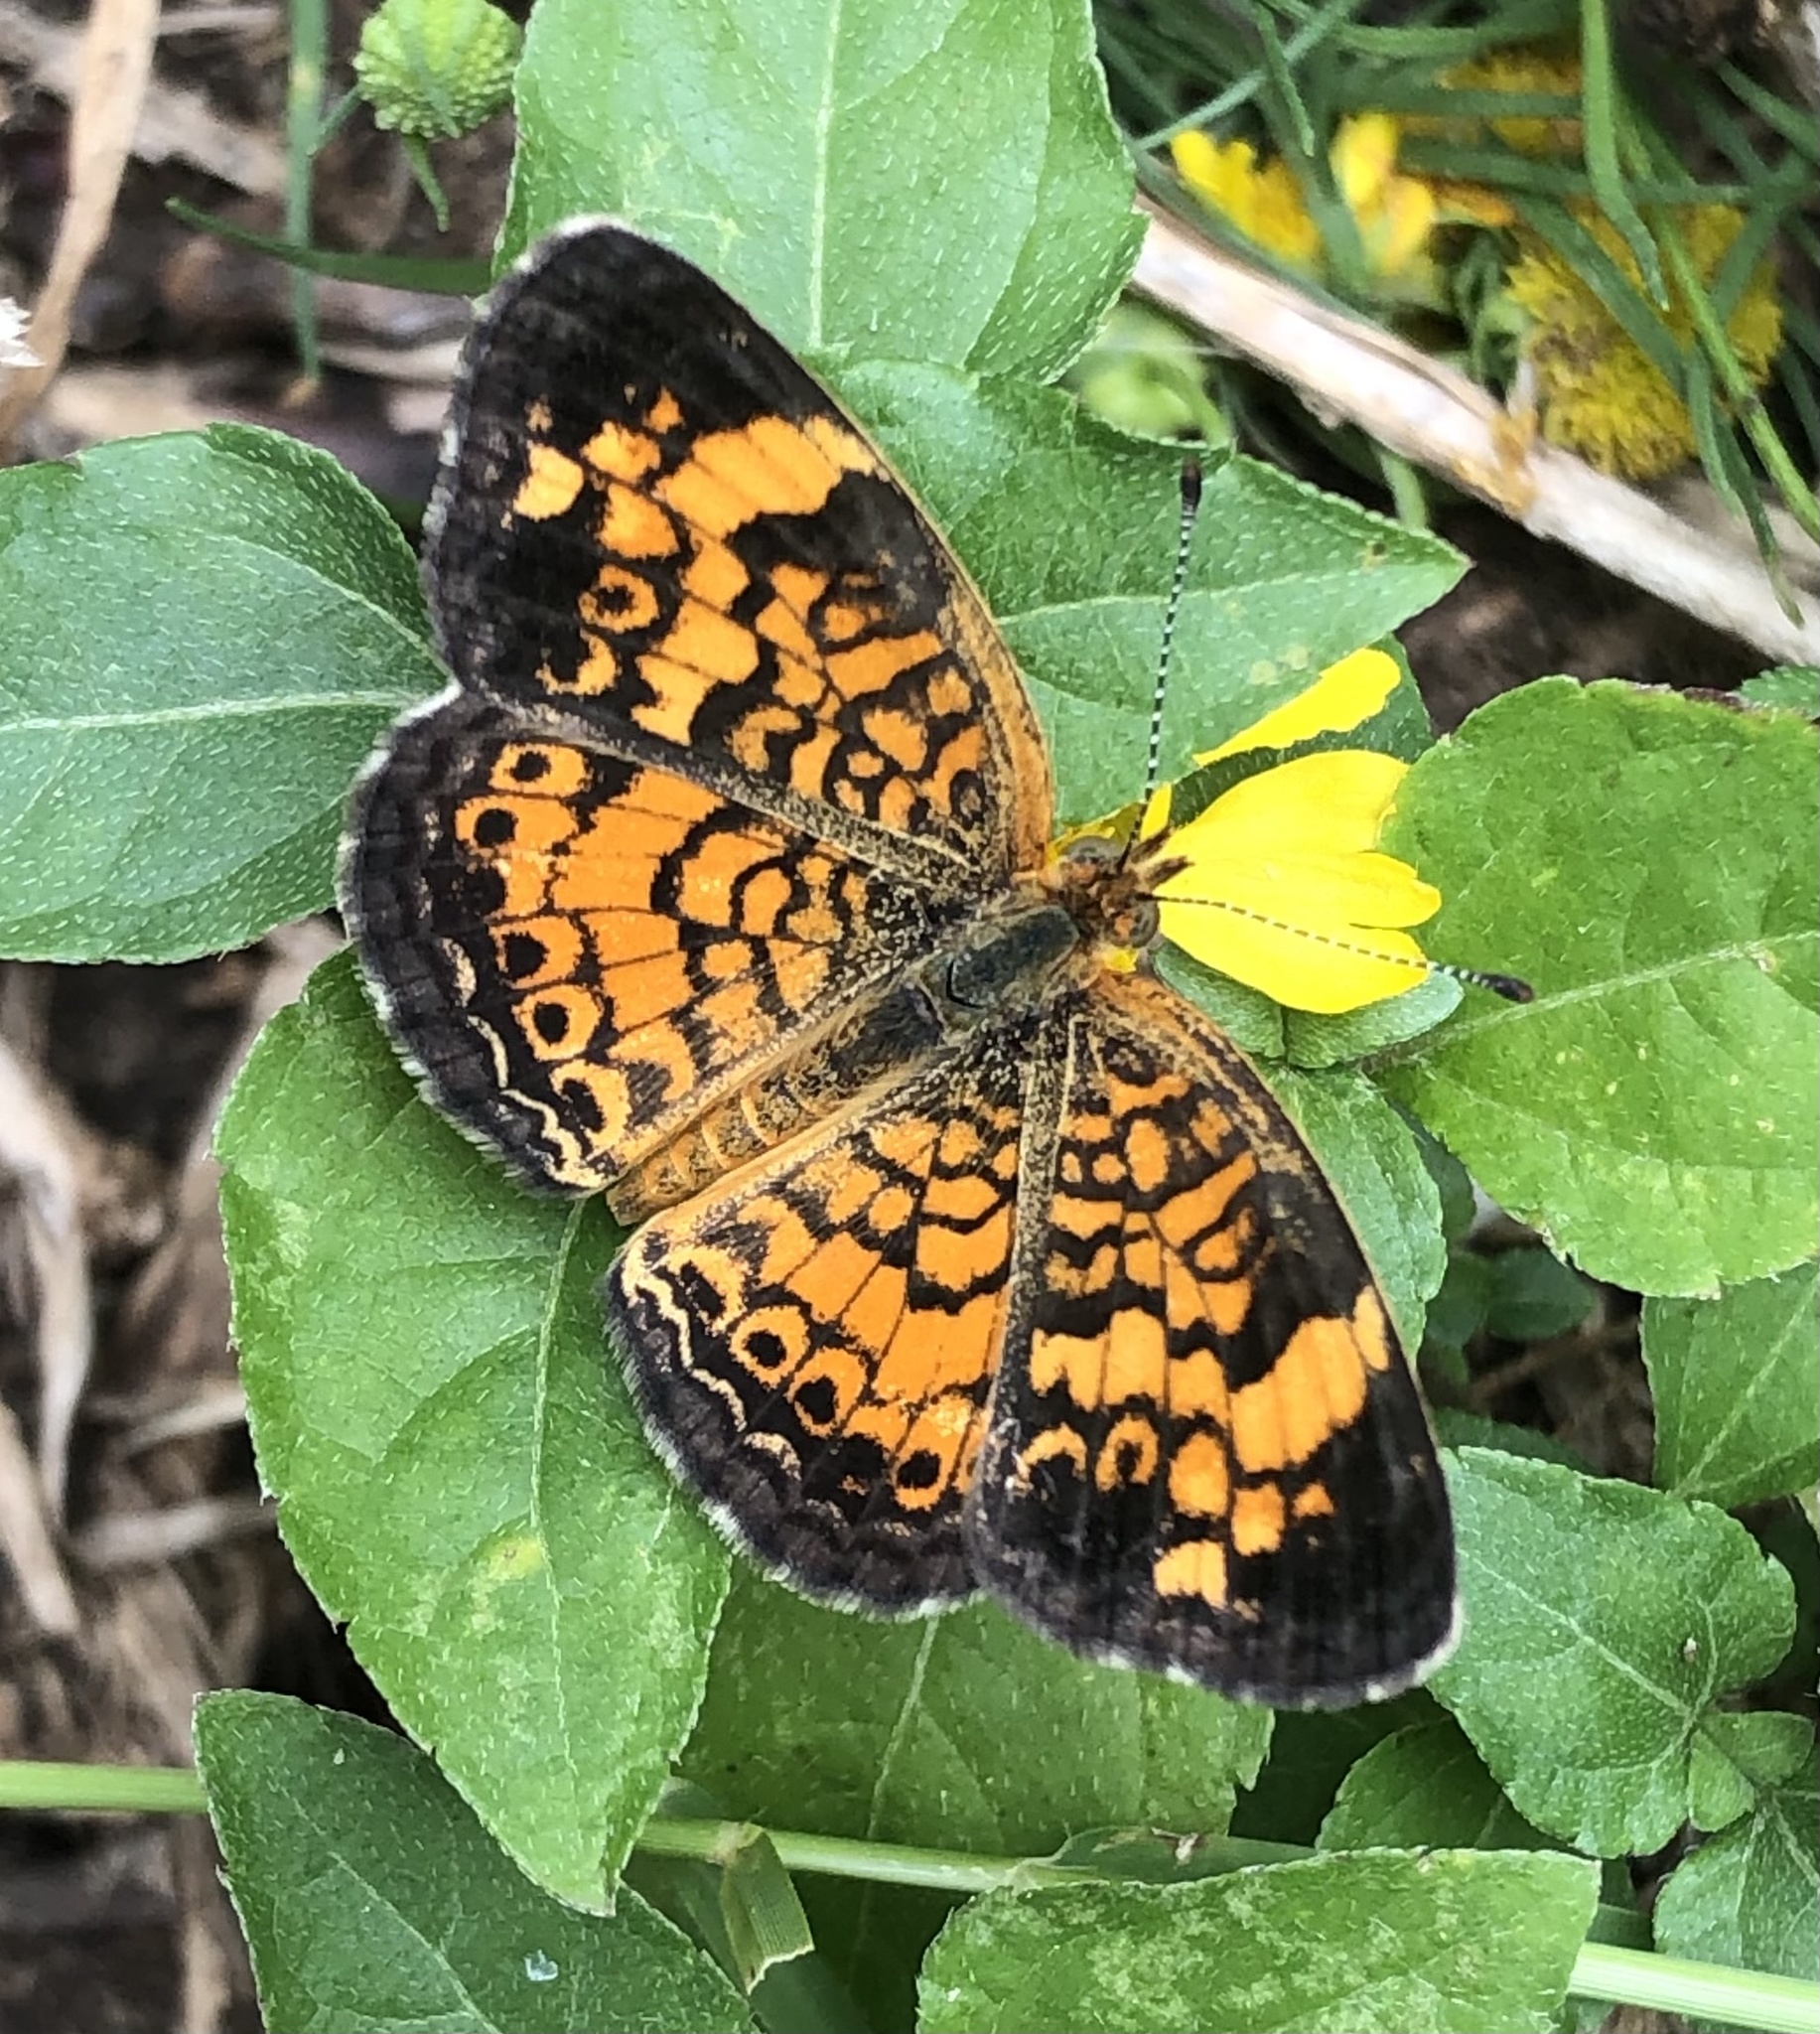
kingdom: Animalia
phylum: Arthropoda
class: Insecta
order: Lepidoptera
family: Nymphalidae
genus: Phyciodes
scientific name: Phyciodes tharos
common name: Pearl crescent
